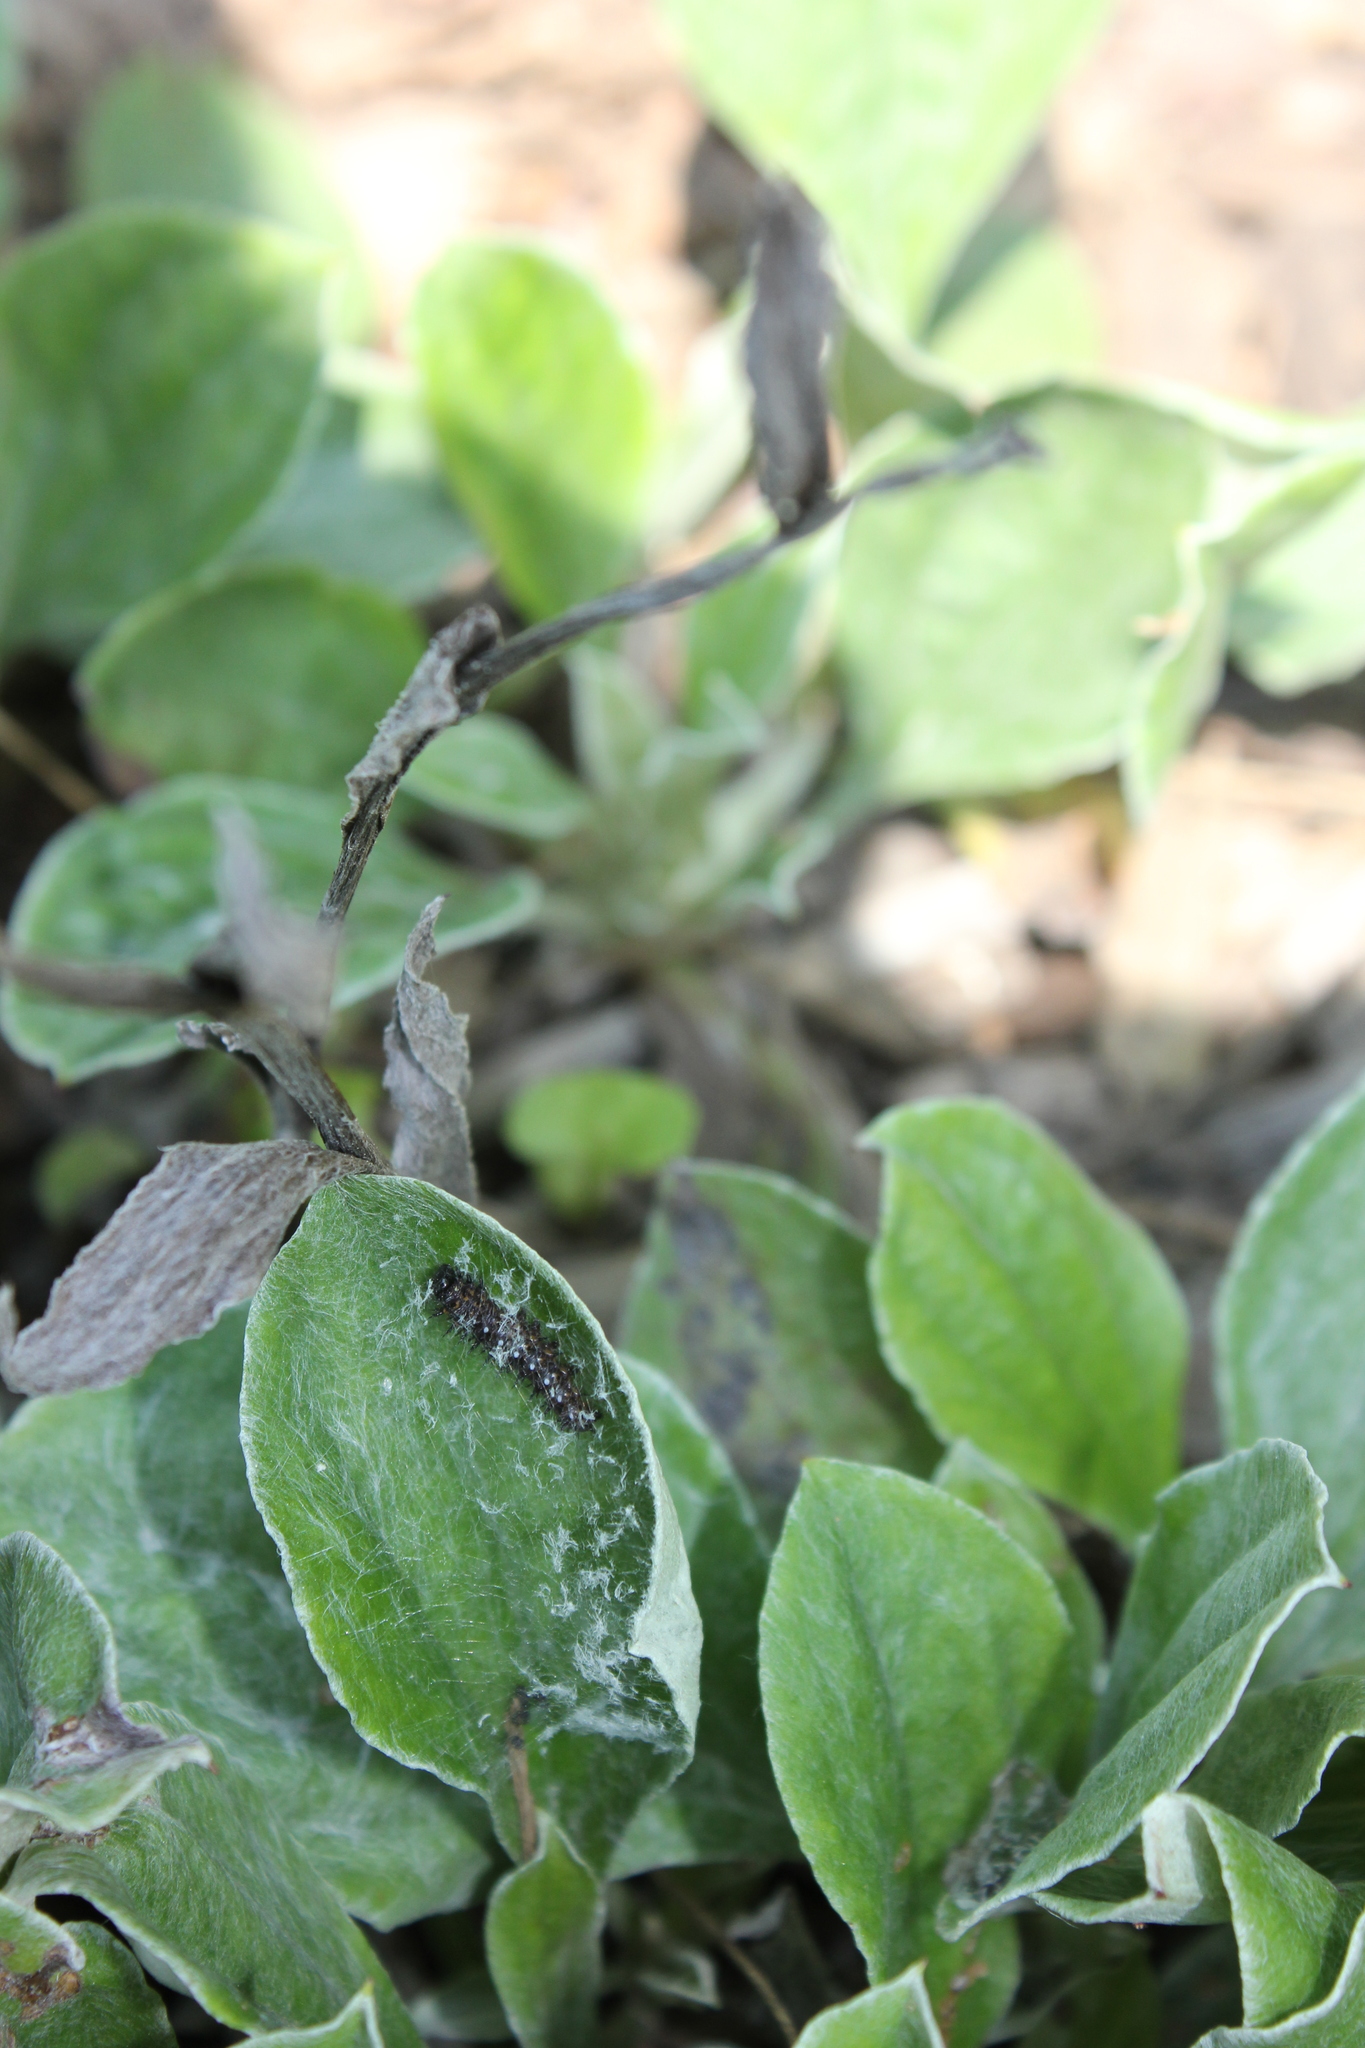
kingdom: Animalia
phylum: Arthropoda
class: Insecta
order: Lepidoptera
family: Nymphalidae
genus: Vanessa
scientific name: Vanessa virginiensis
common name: American lady
